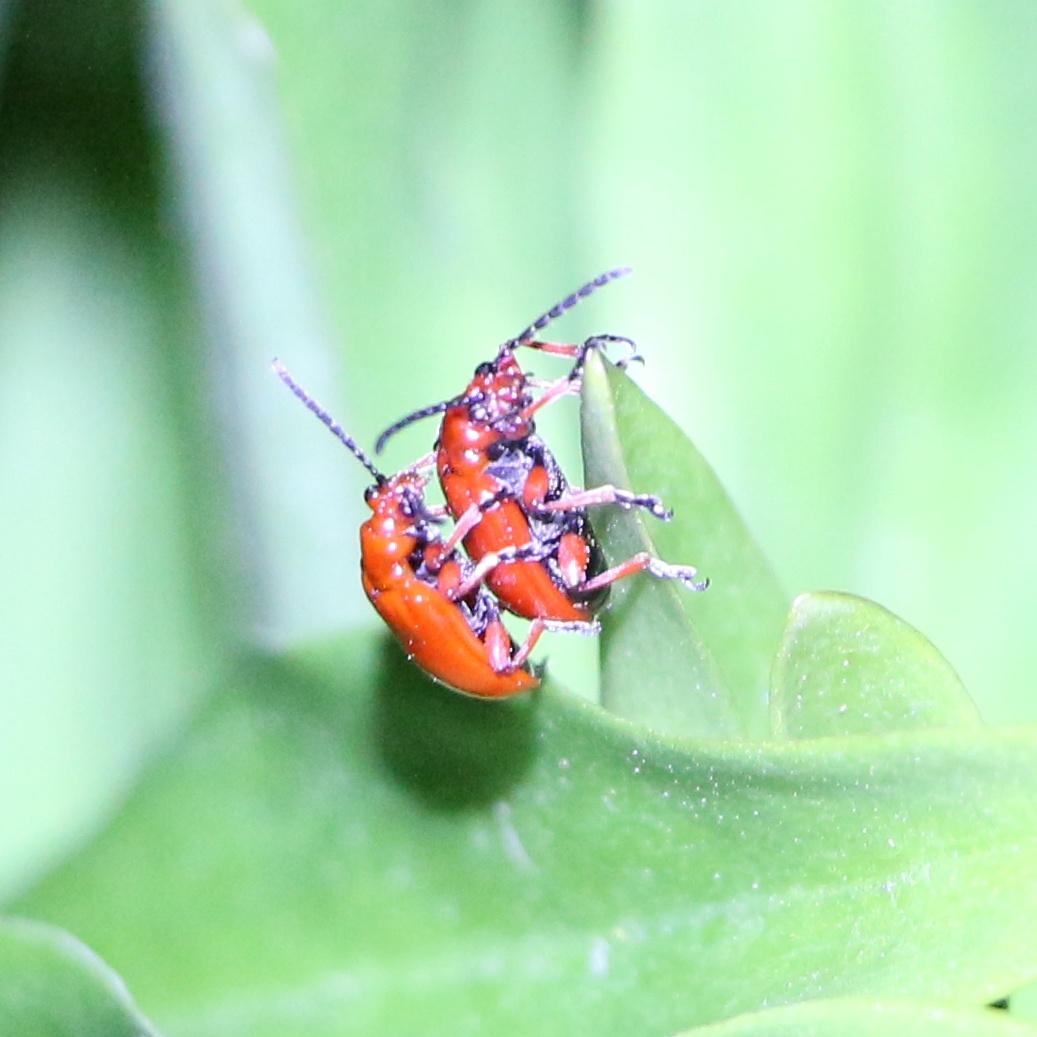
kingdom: Animalia
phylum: Arthropoda
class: Insecta
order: Coleoptera
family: Chrysomelidae
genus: Lilioceris
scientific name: Lilioceris faldermanni
